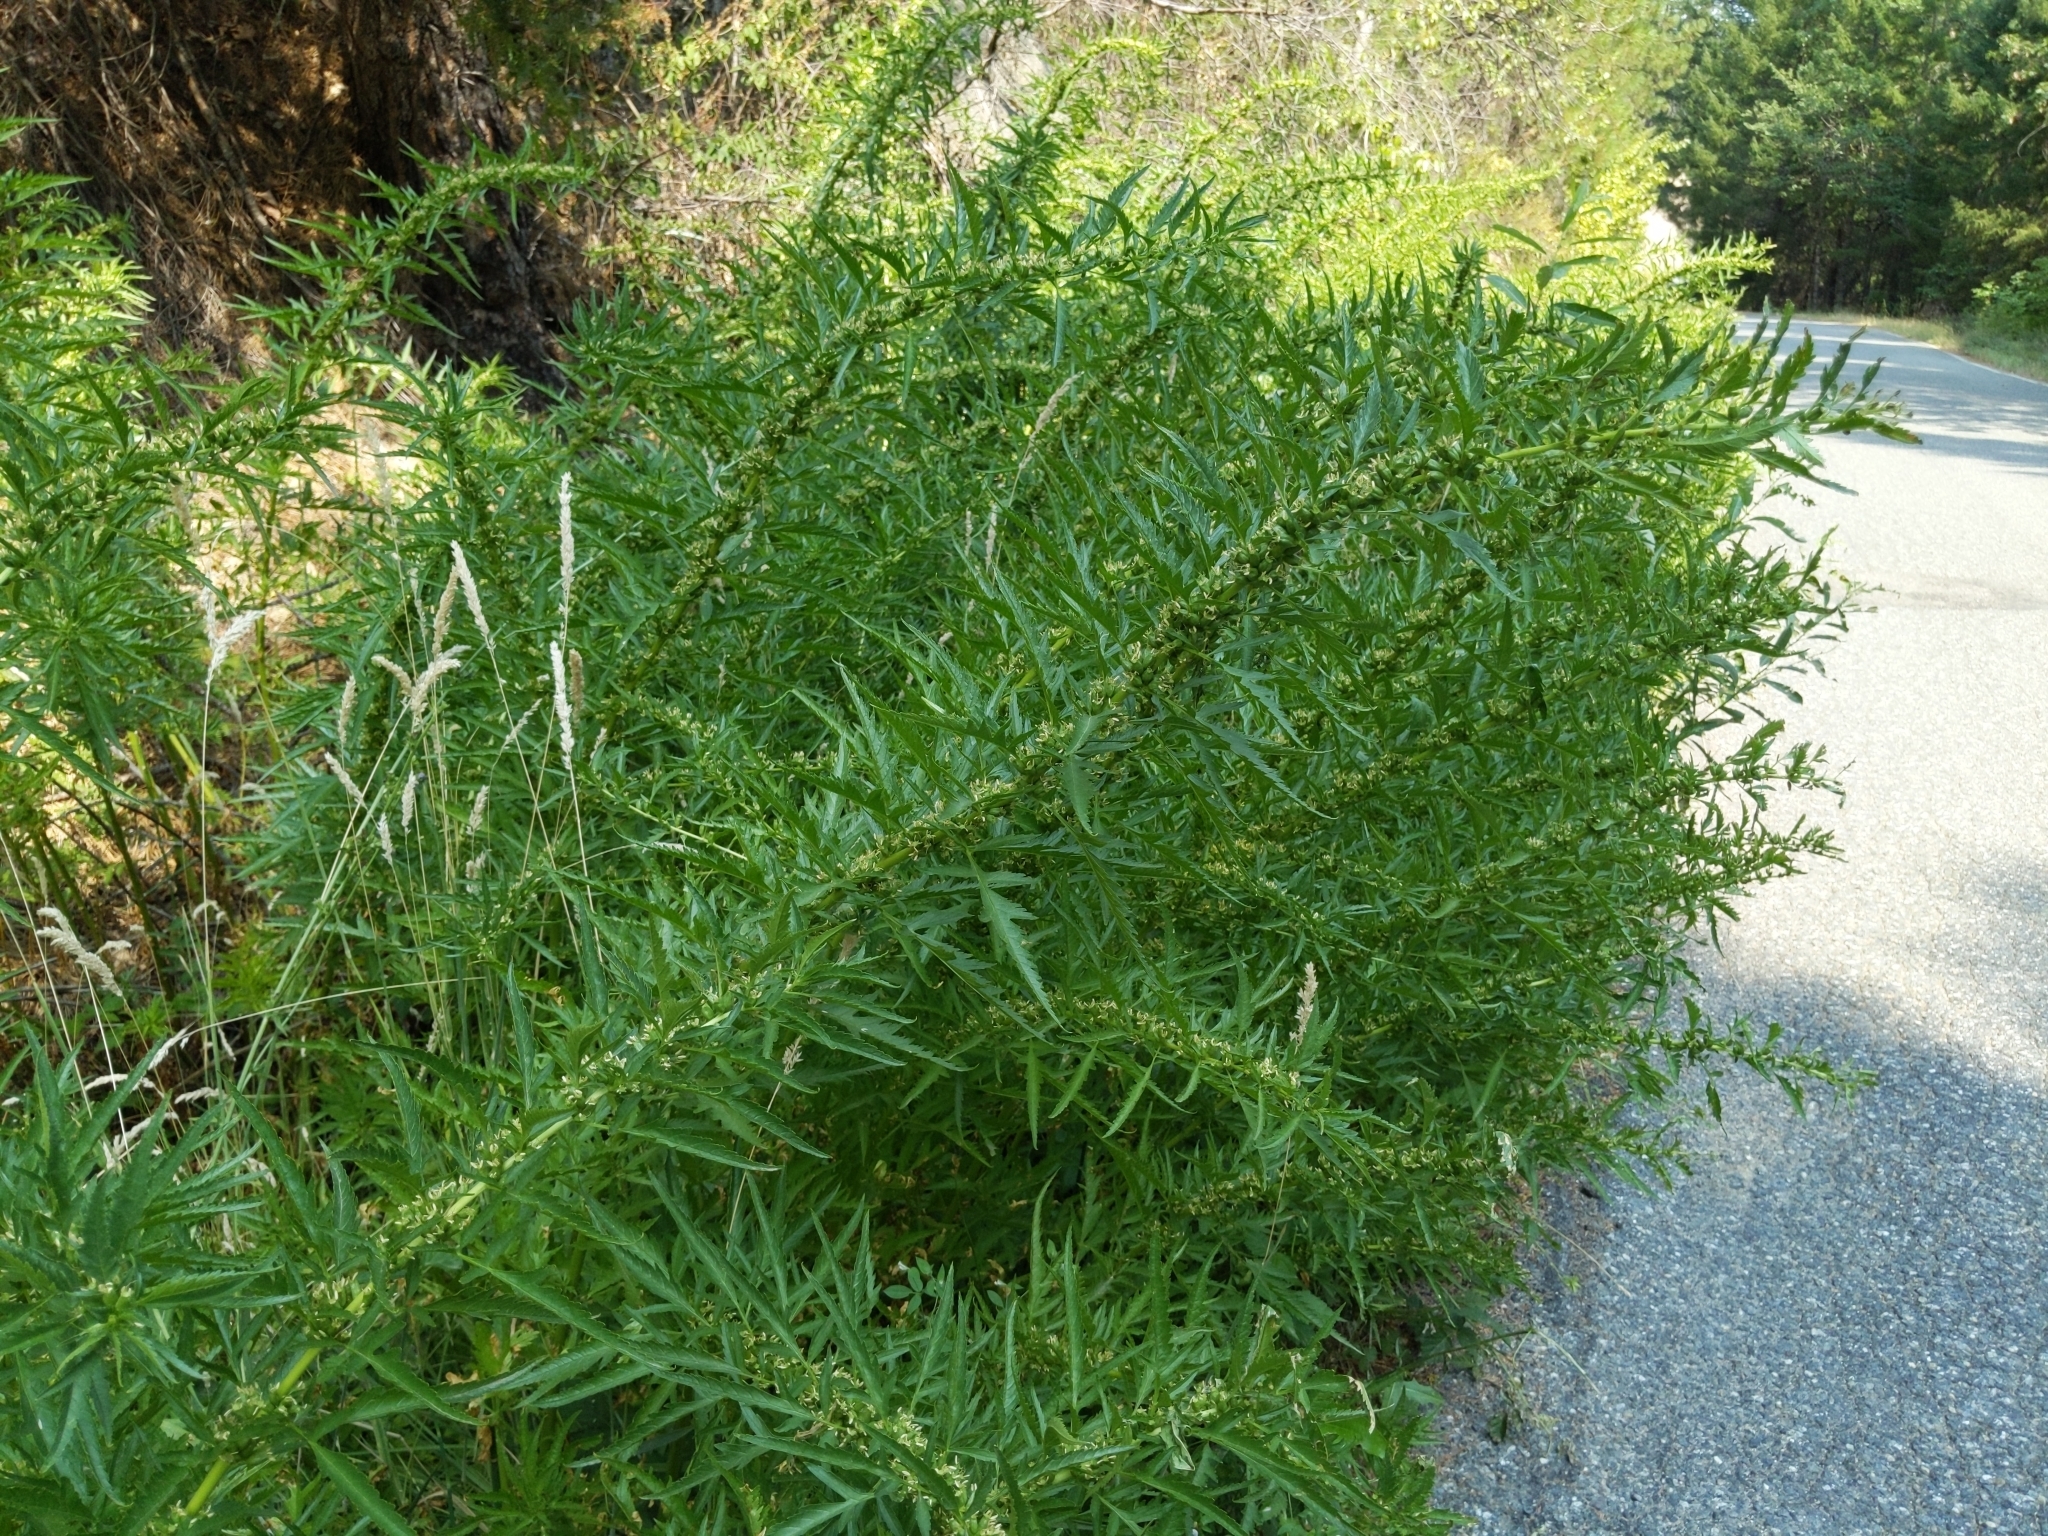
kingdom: Plantae
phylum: Tracheophyta
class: Magnoliopsida
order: Cucurbitales
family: Datiscaceae
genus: Datisca
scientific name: Datisca glomerata
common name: Durango-root
